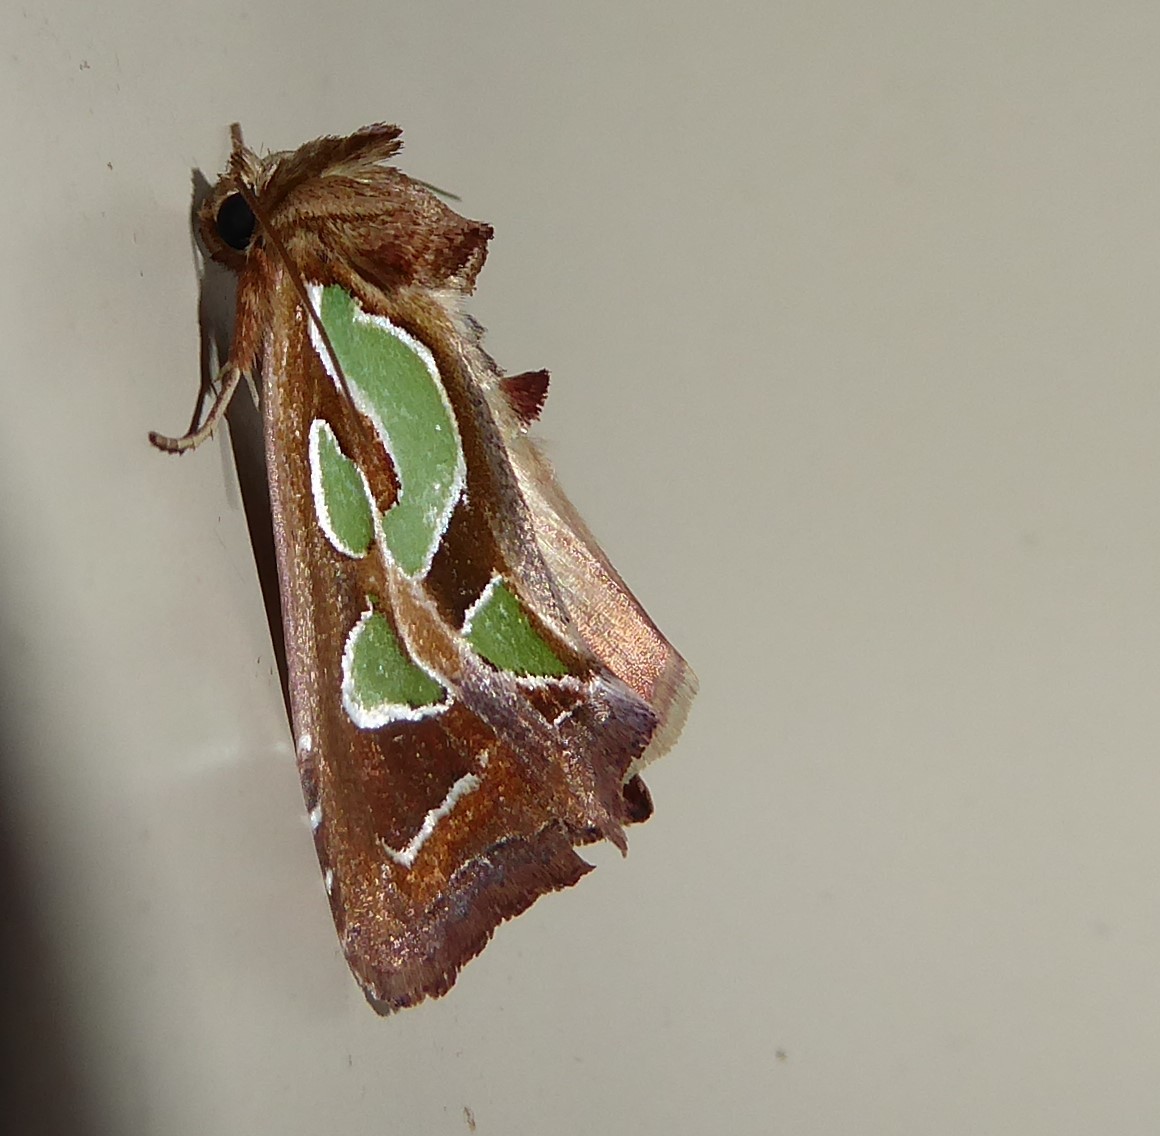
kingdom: Animalia
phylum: Arthropoda
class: Insecta
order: Lepidoptera
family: Noctuidae
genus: Cosmodes
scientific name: Cosmodes elegans
